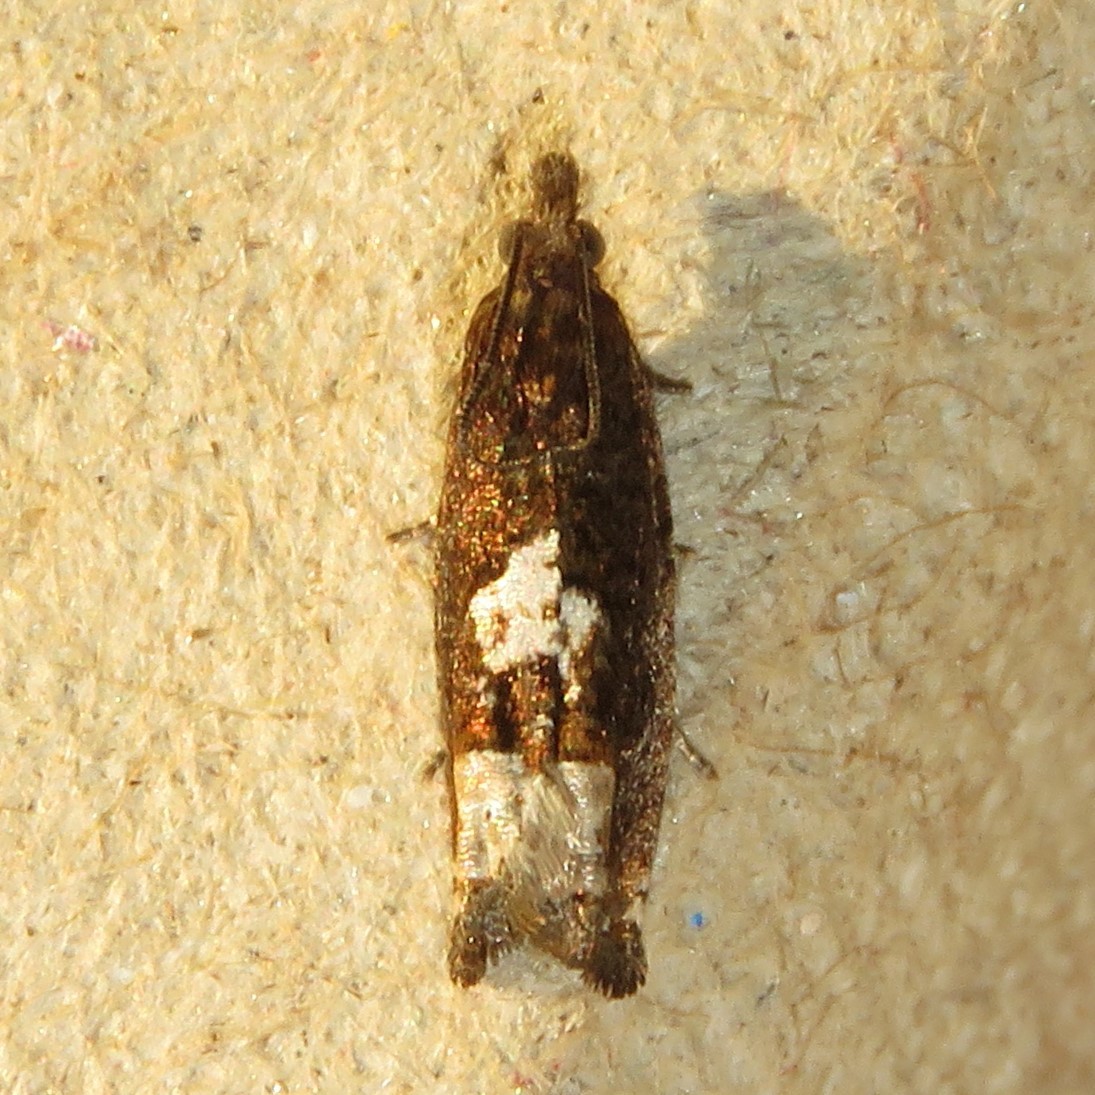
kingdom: Animalia
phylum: Arthropoda
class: Insecta
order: Lepidoptera
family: Tortricidae
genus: Eucosma
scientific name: Eucosma parmatana
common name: Aster eucosma moth
